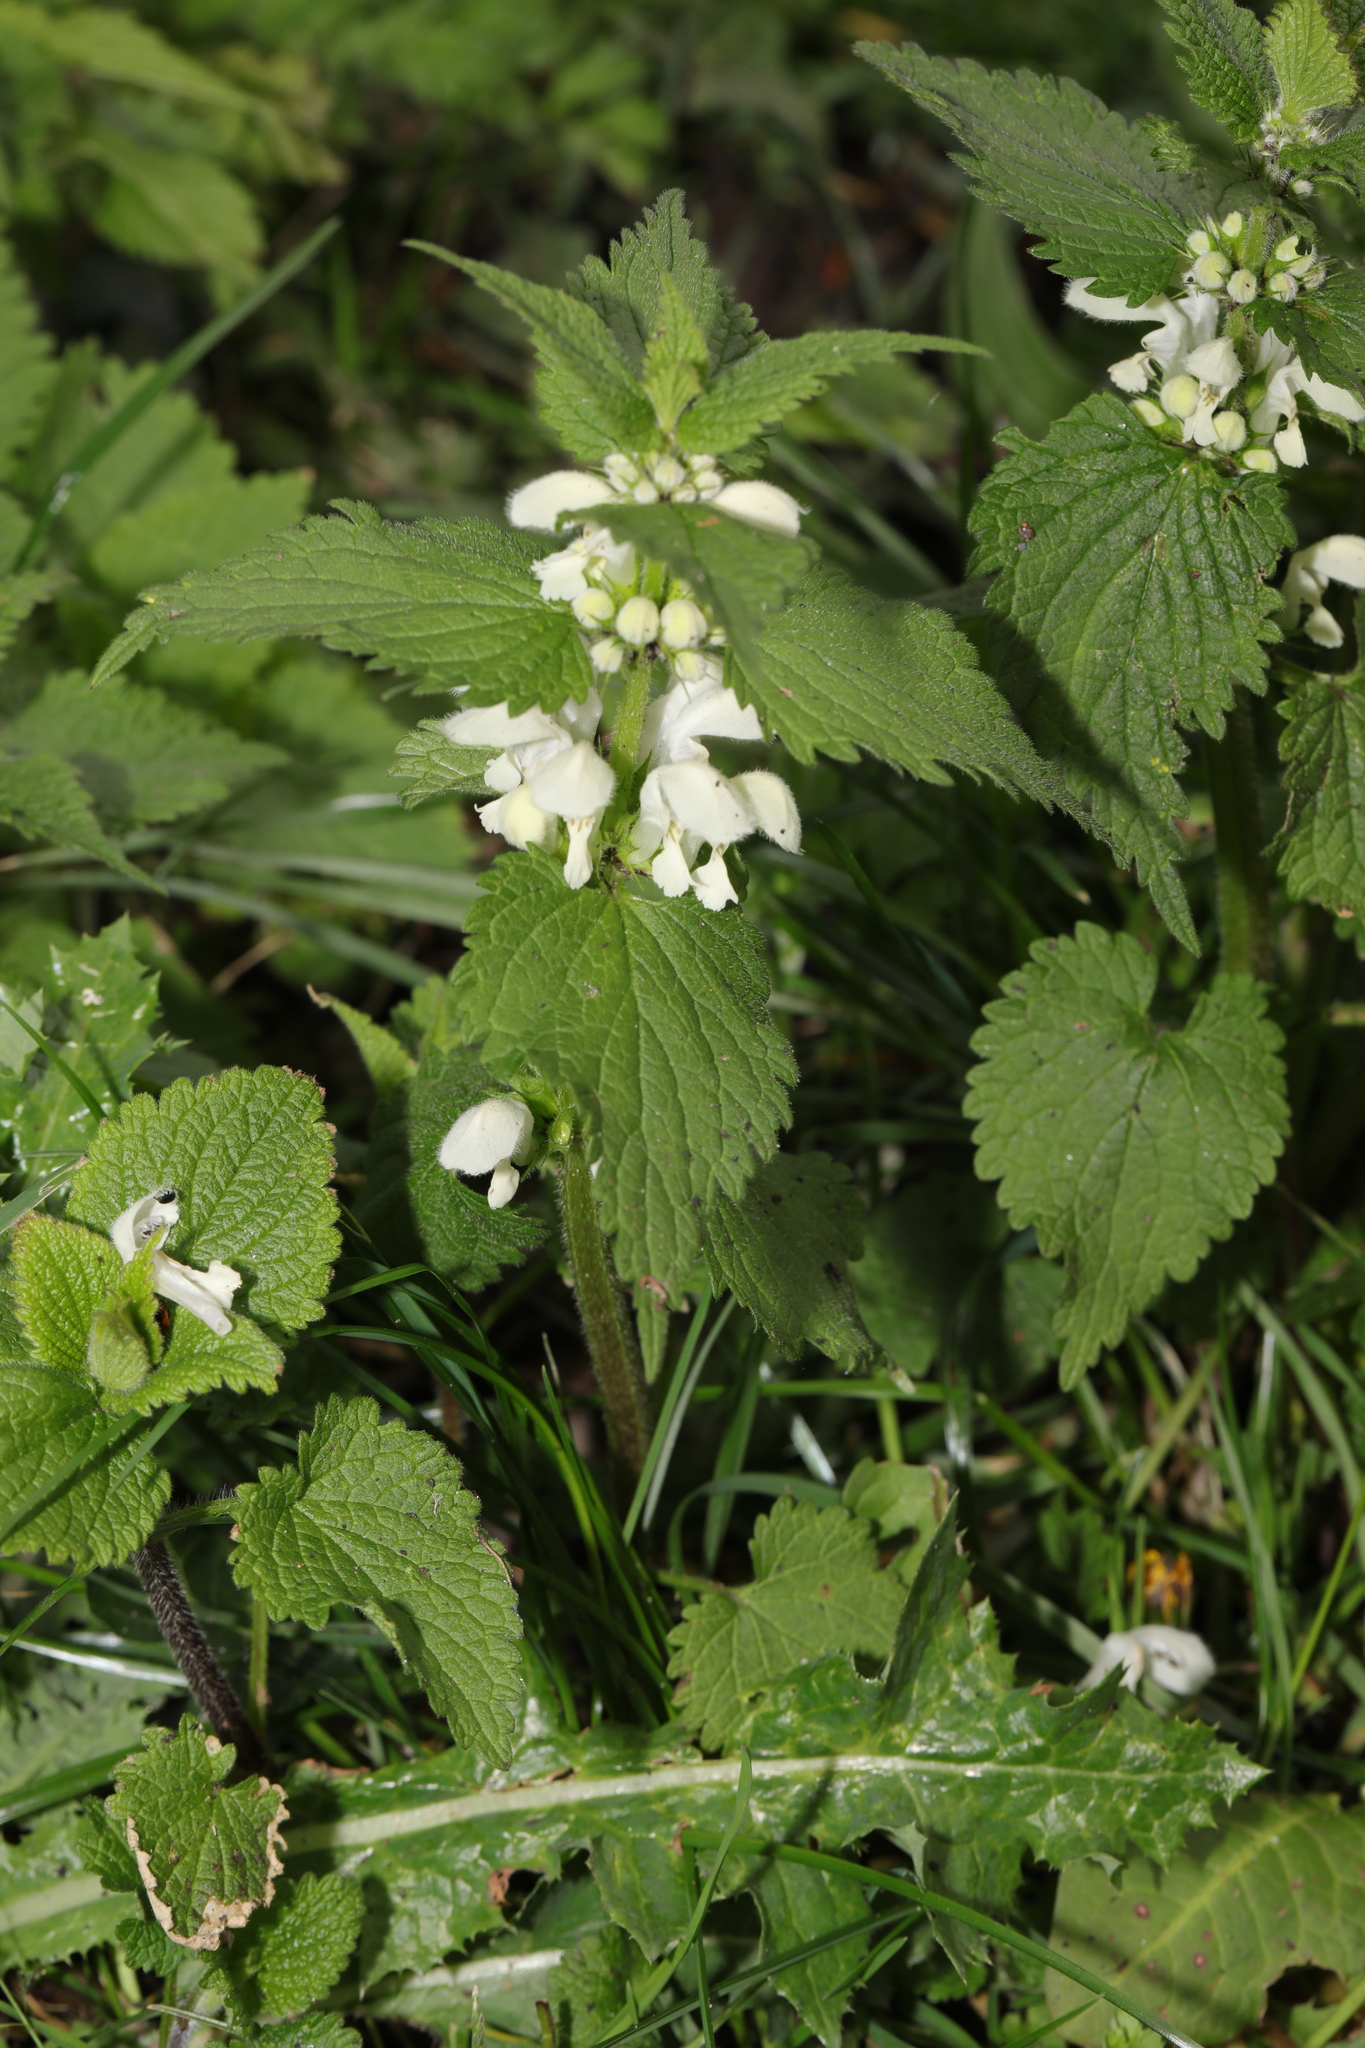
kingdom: Plantae
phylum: Tracheophyta
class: Magnoliopsida
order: Lamiales
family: Lamiaceae
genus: Lamium
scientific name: Lamium album
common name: White dead-nettle
